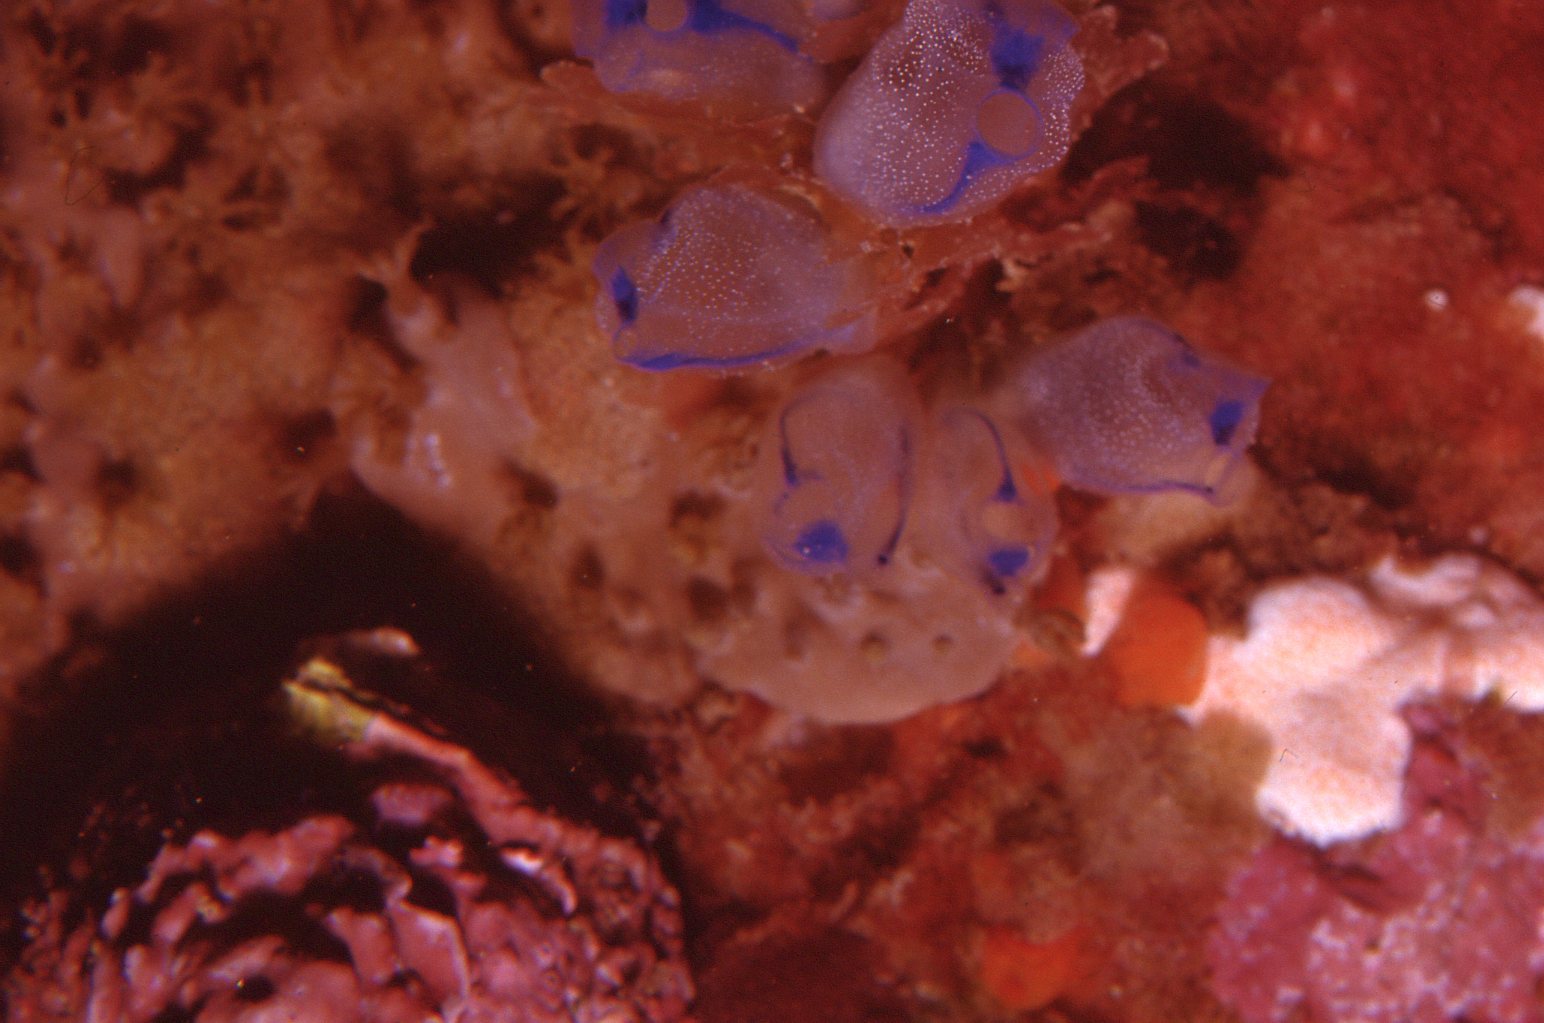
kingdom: Animalia
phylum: Chordata
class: Ascidiacea
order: Aplousobranchia
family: Clavelinidae
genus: Clavelina
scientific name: Clavelina australis
